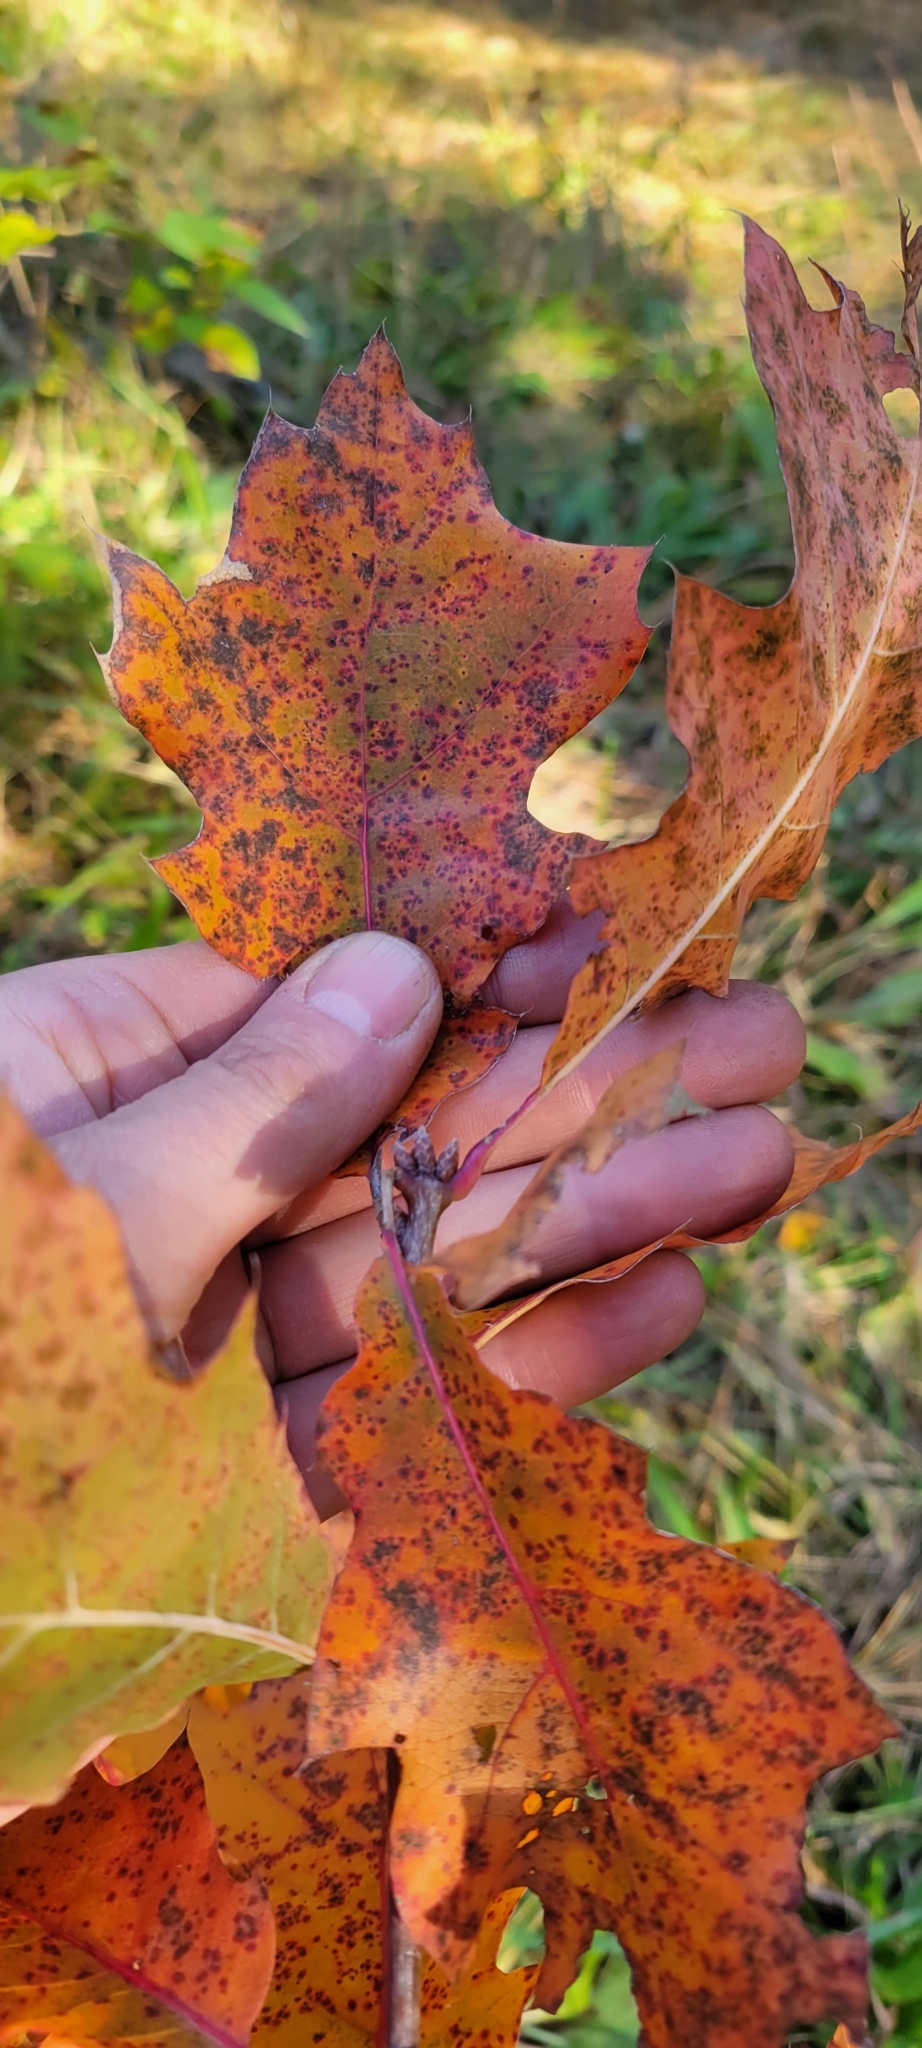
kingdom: Plantae
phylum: Tracheophyta
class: Magnoliopsida
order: Fagales
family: Fagaceae
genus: Quercus
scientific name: Quercus rubra
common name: Red oak
